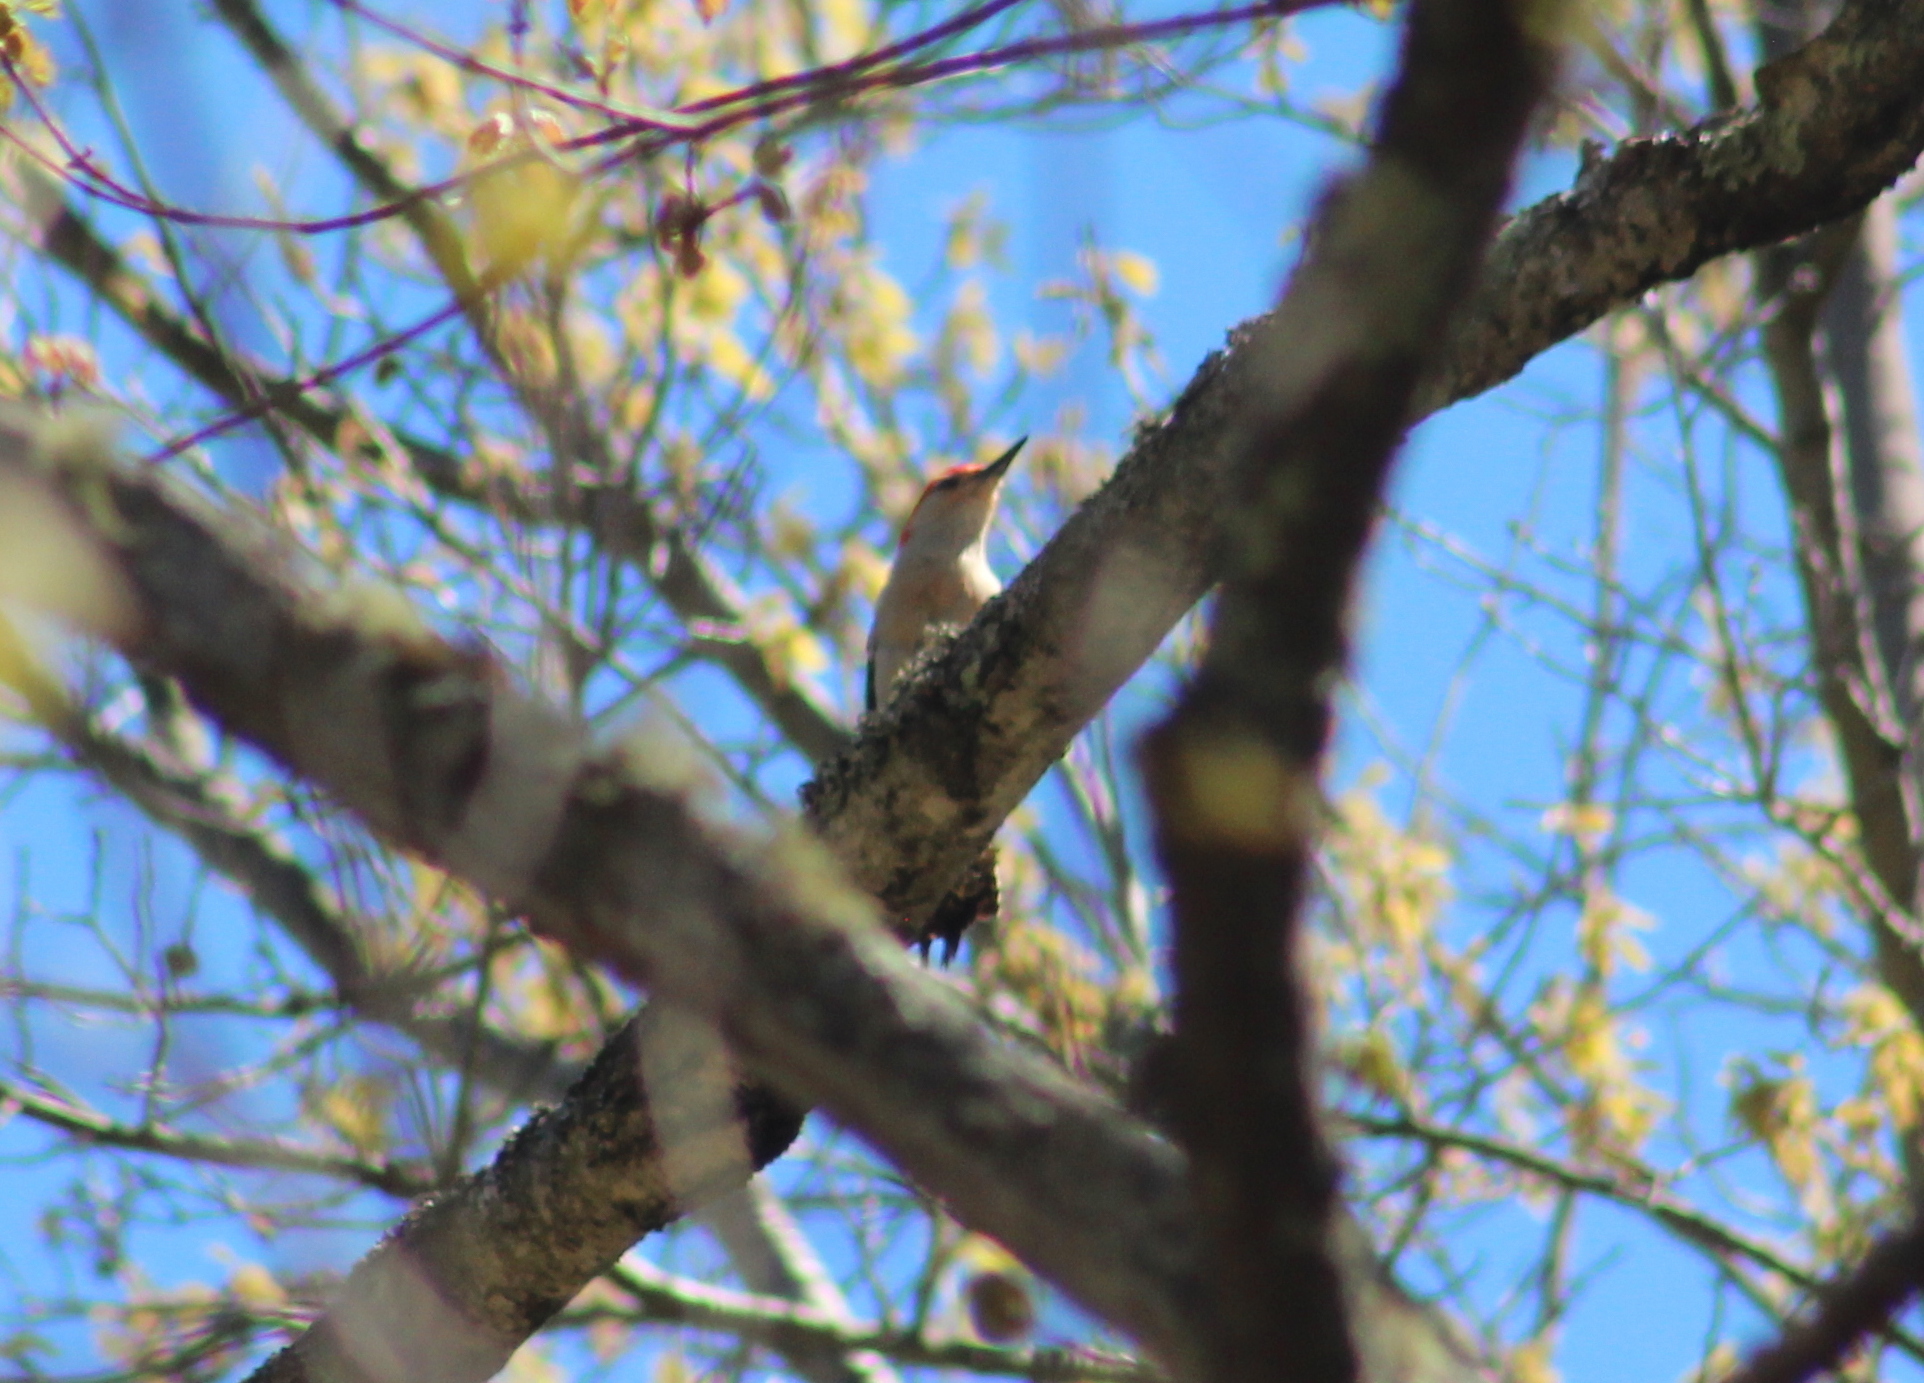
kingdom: Animalia
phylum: Chordata
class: Aves
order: Piciformes
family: Picidae
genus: Melanerpes
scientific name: Melanerpes carolinus
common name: Red-bellied woodpecker
